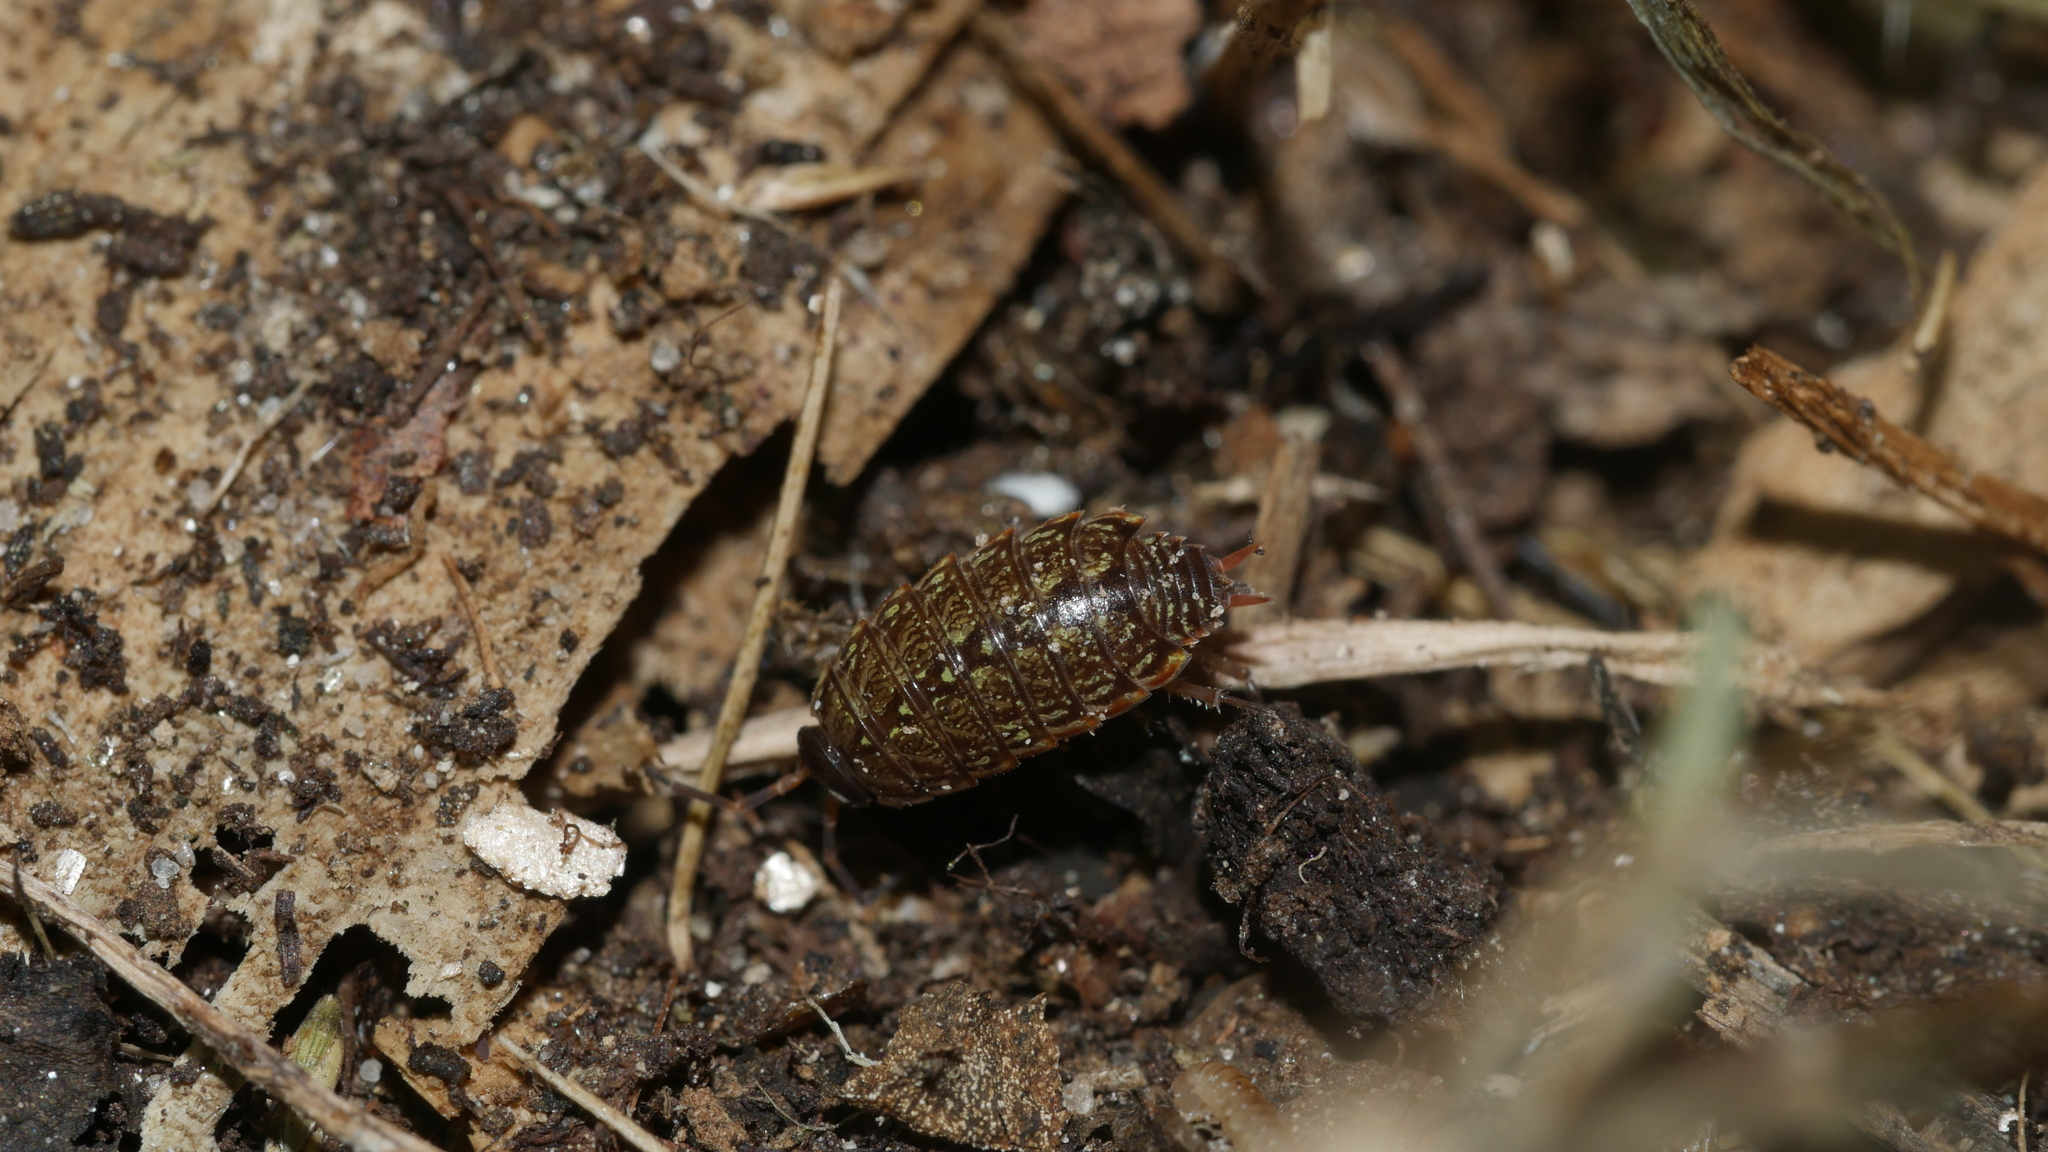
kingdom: Animalia
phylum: Arthropoda
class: Malacostraca
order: Isopoda
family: Philosciidae
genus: Philoscia
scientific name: Philoscia muscorum
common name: Common striped woodlouse
